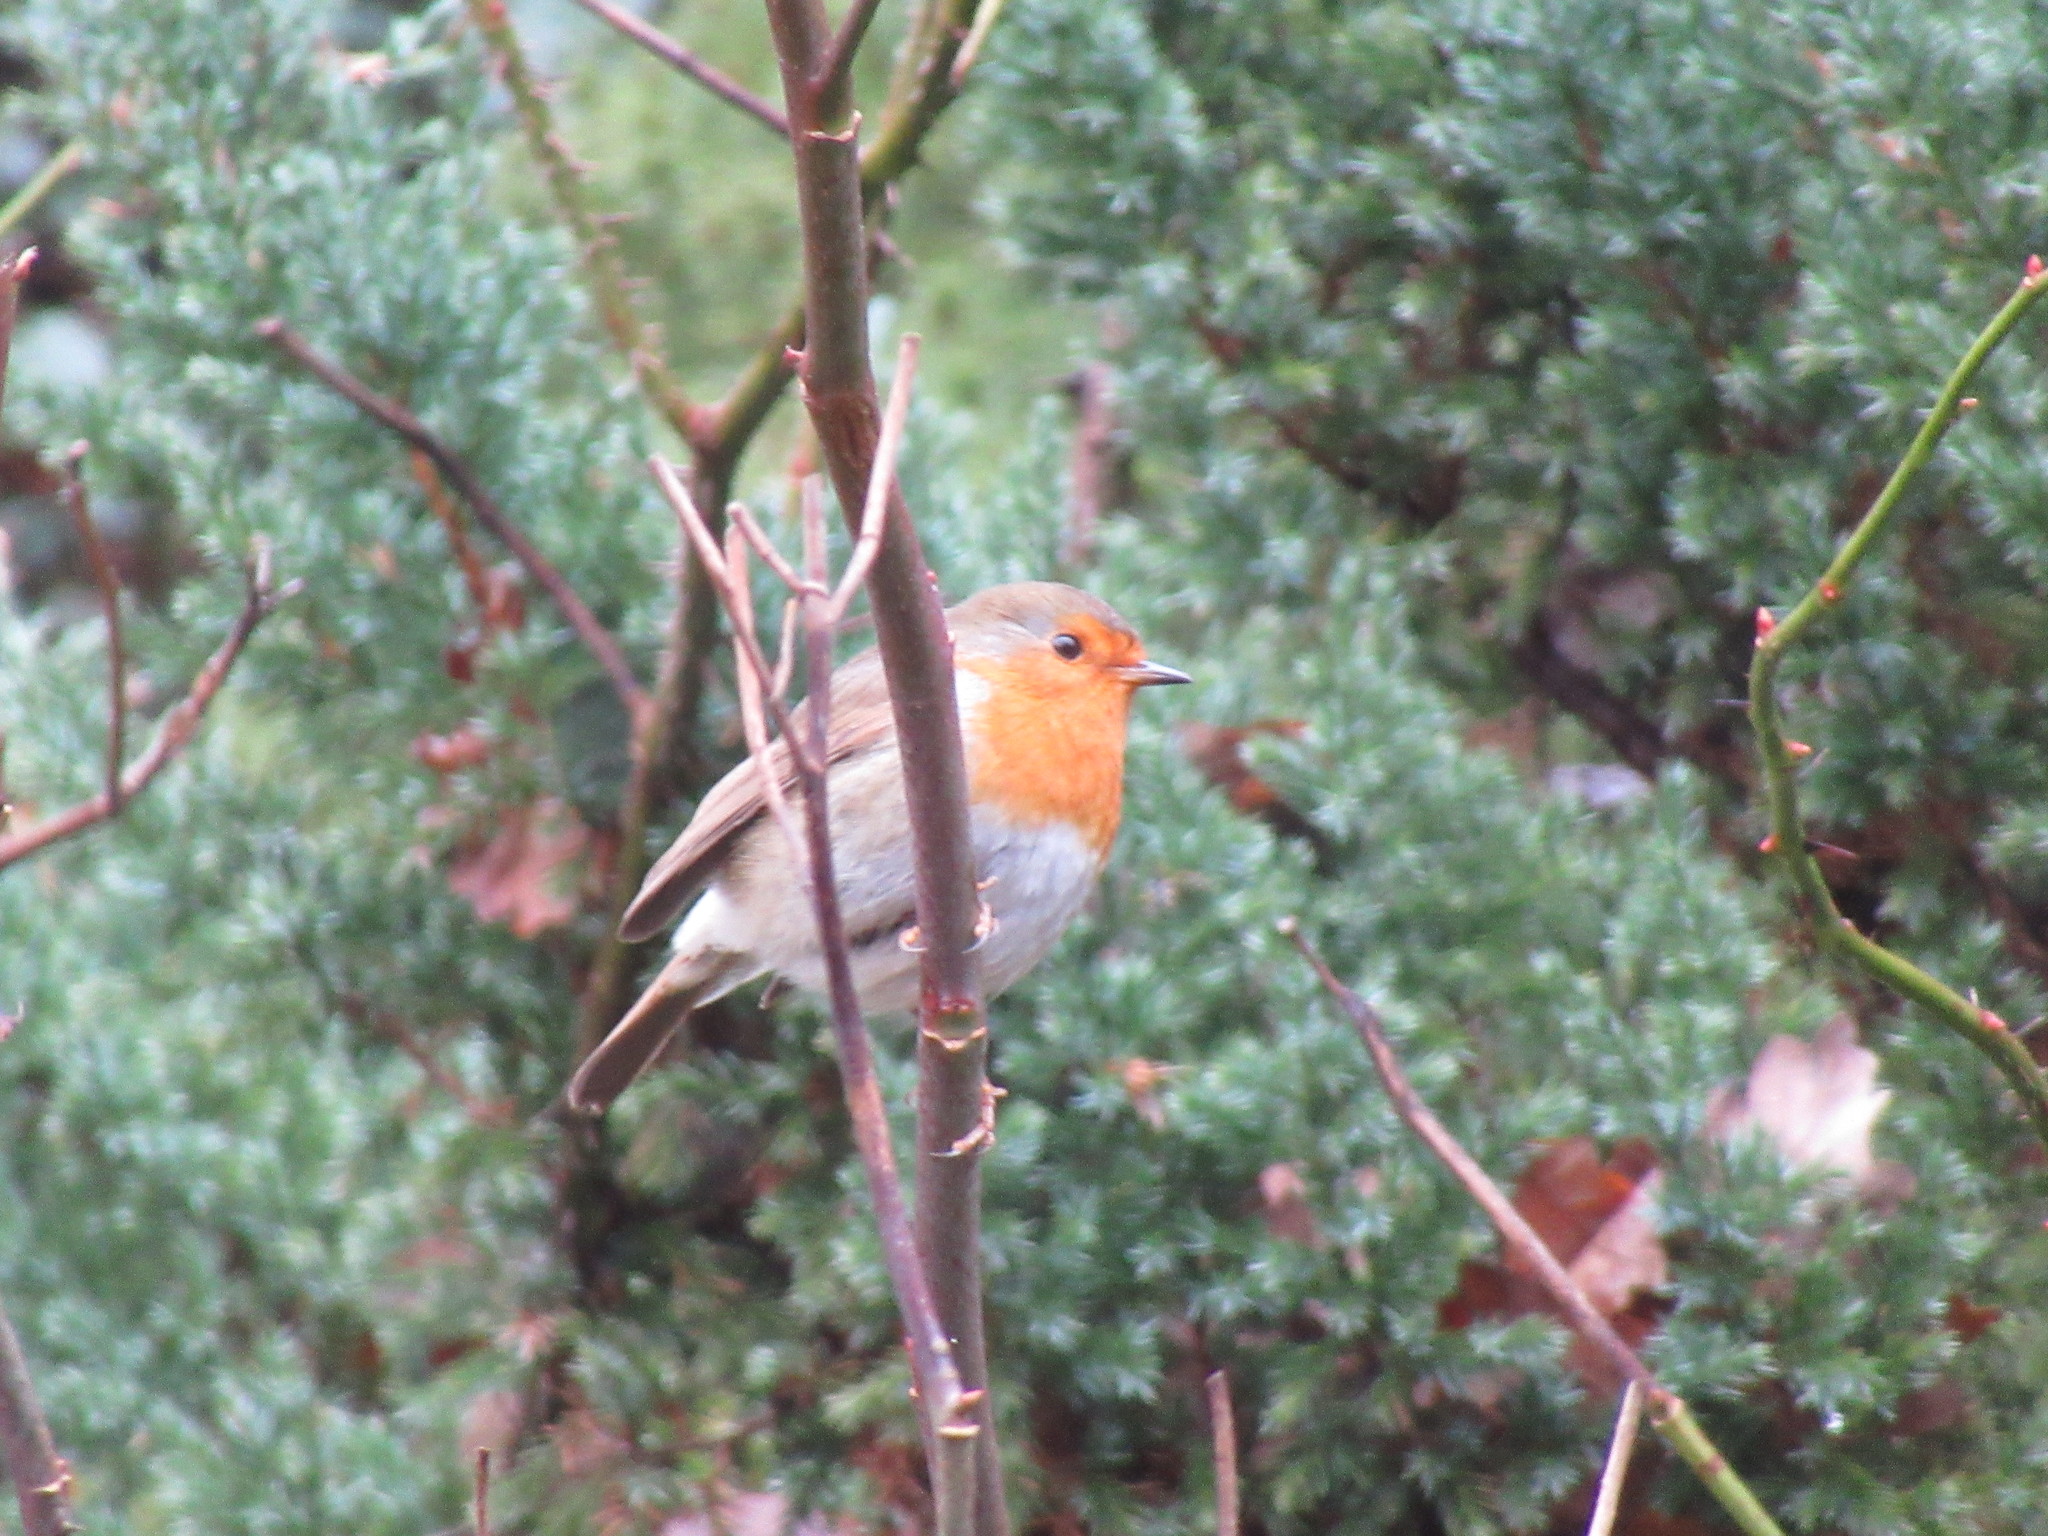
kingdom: Animalia
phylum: Chordata
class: Aves
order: Passeriformes
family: Muscicapidae
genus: Erithacus
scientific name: Erithacus rubecula
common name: European robin
